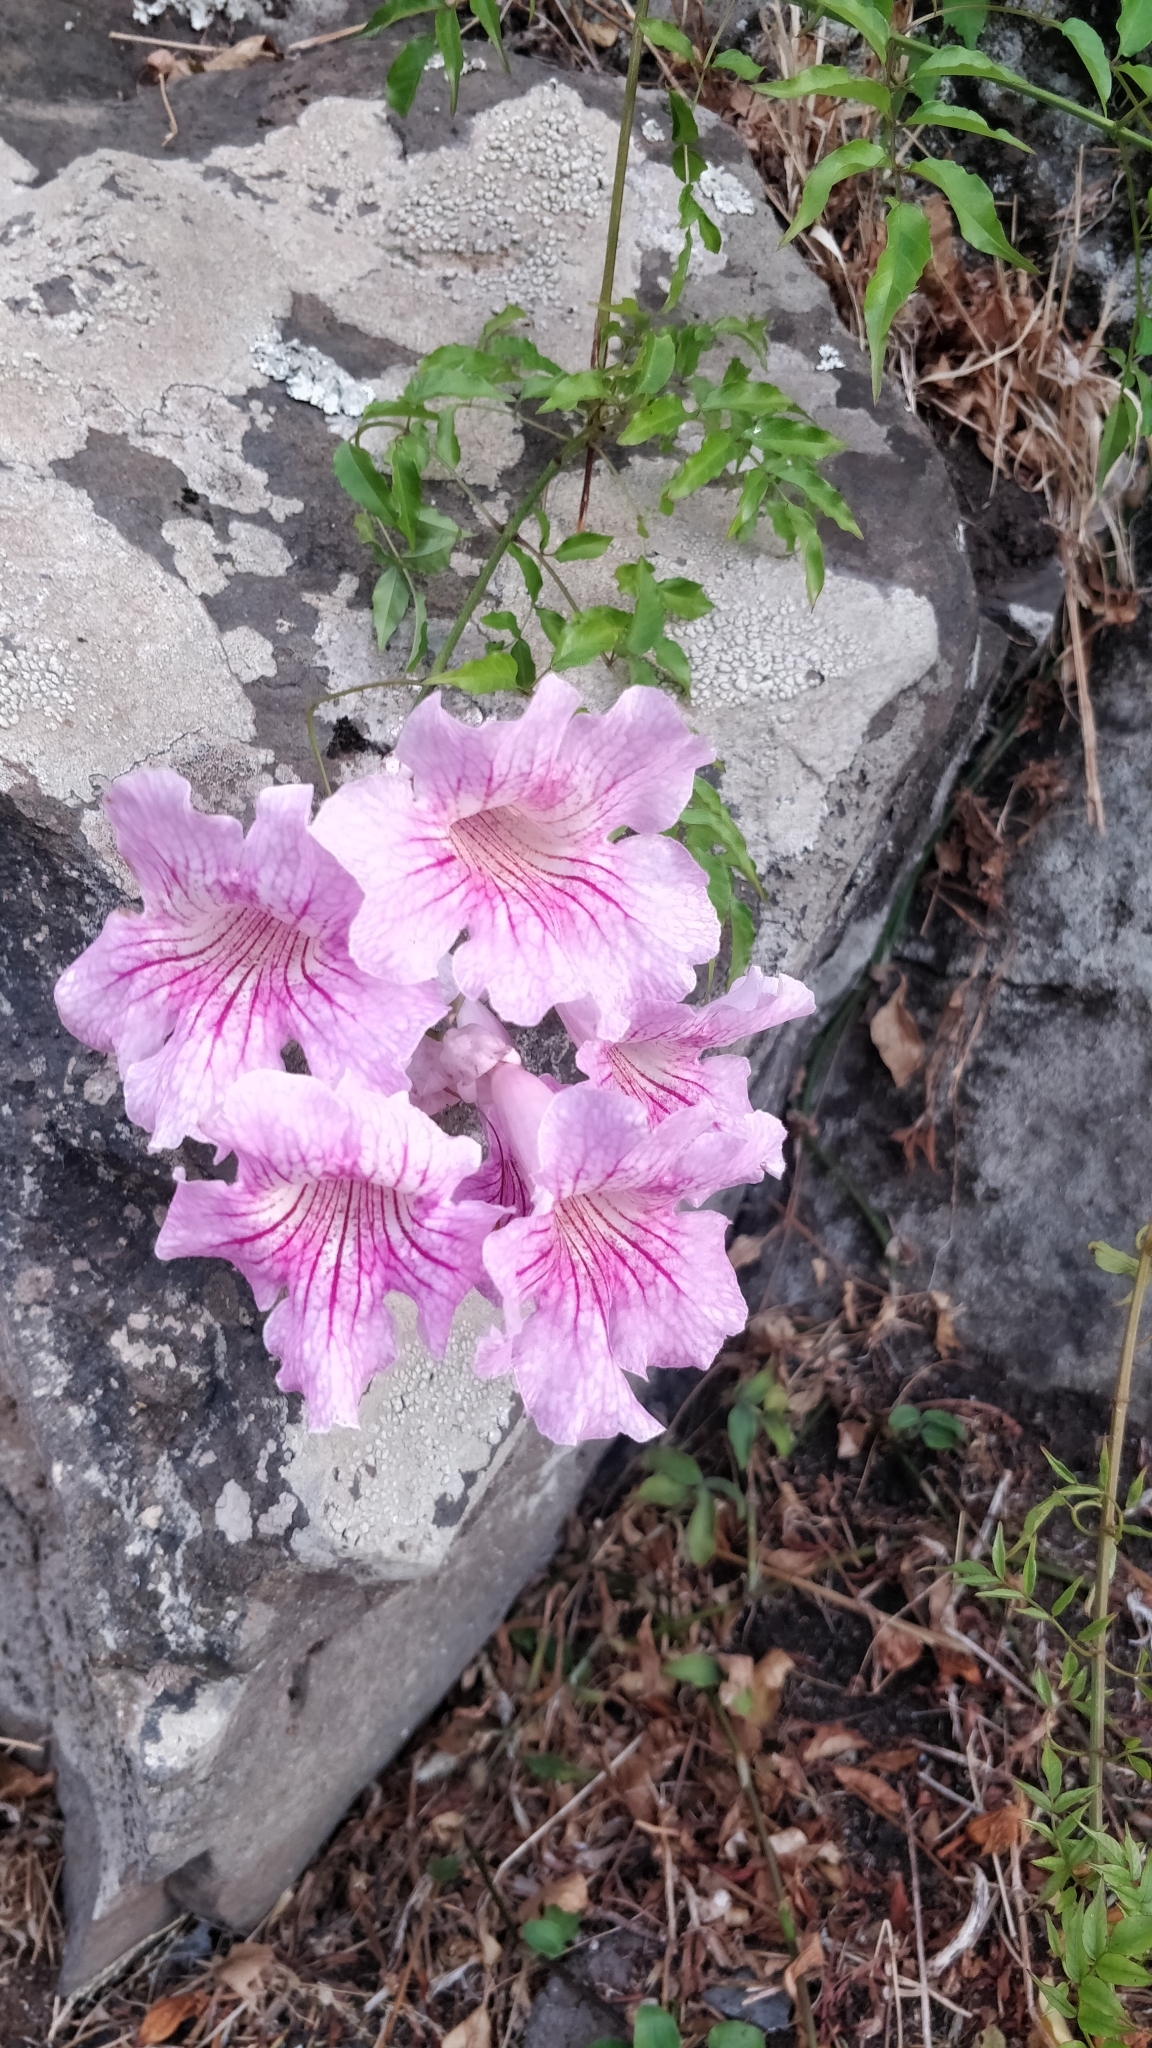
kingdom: Plantae
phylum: Tracheophyta
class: Magnoliopsida
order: Lamiales
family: Bignoniaceae
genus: Podranea
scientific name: Podranea ricasoliana
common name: Zimbabwe creeper
